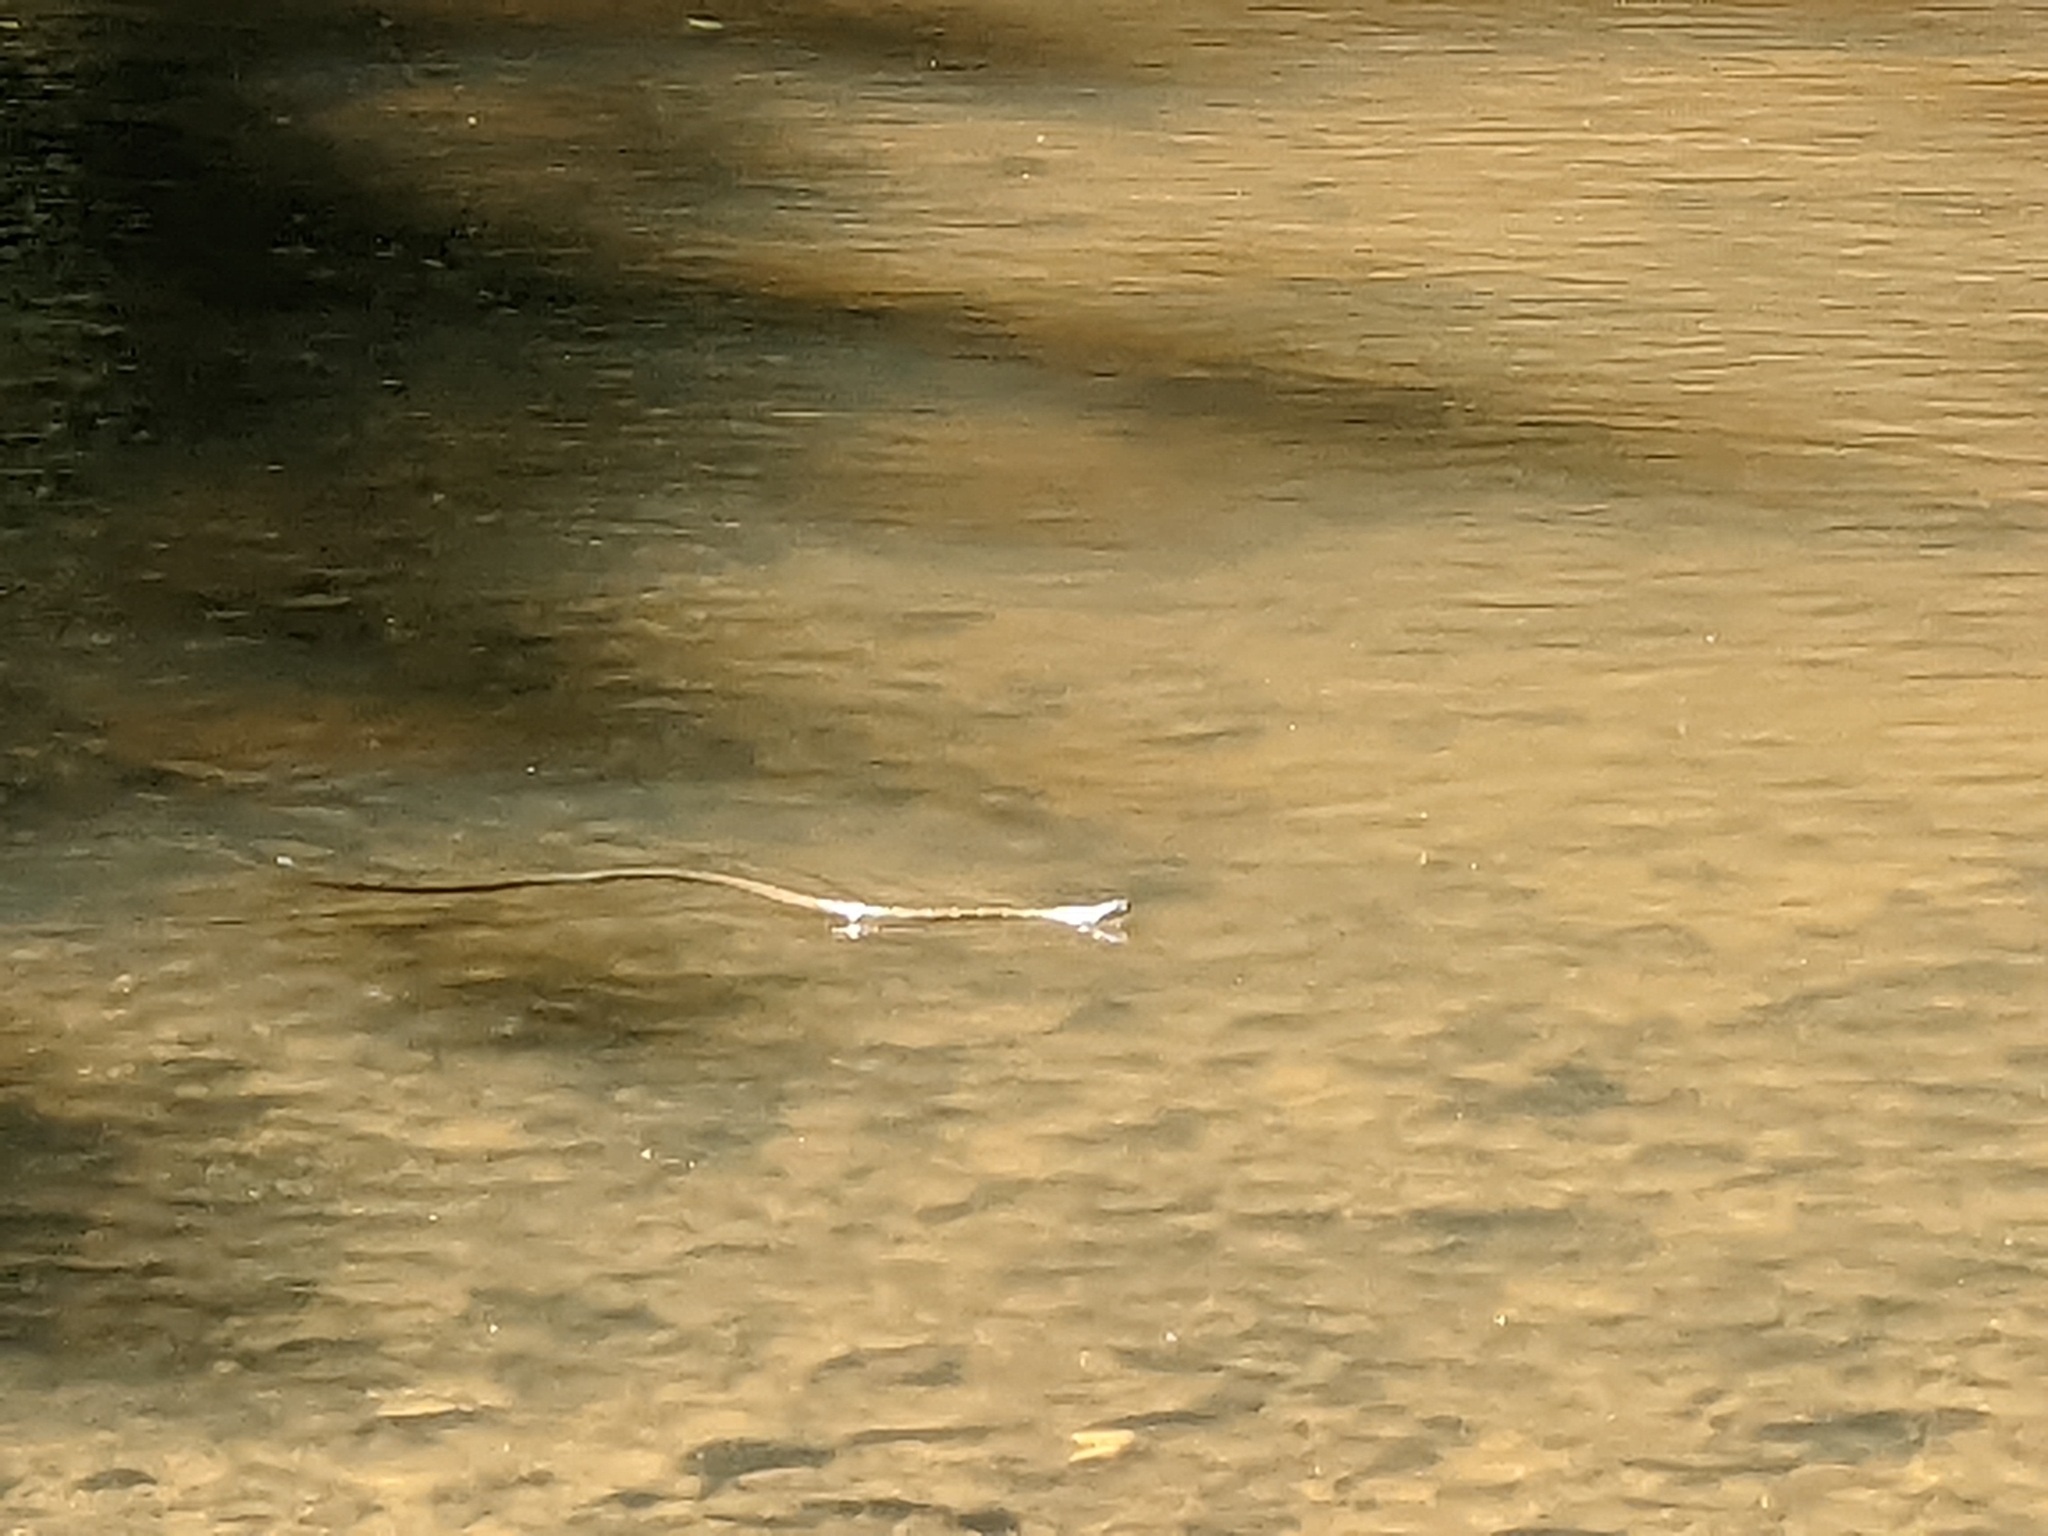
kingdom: Animalia
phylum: Chordata
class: Squamata
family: Colubridae
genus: Nerodia
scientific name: Nerodia sipedon
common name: Northern water snake
